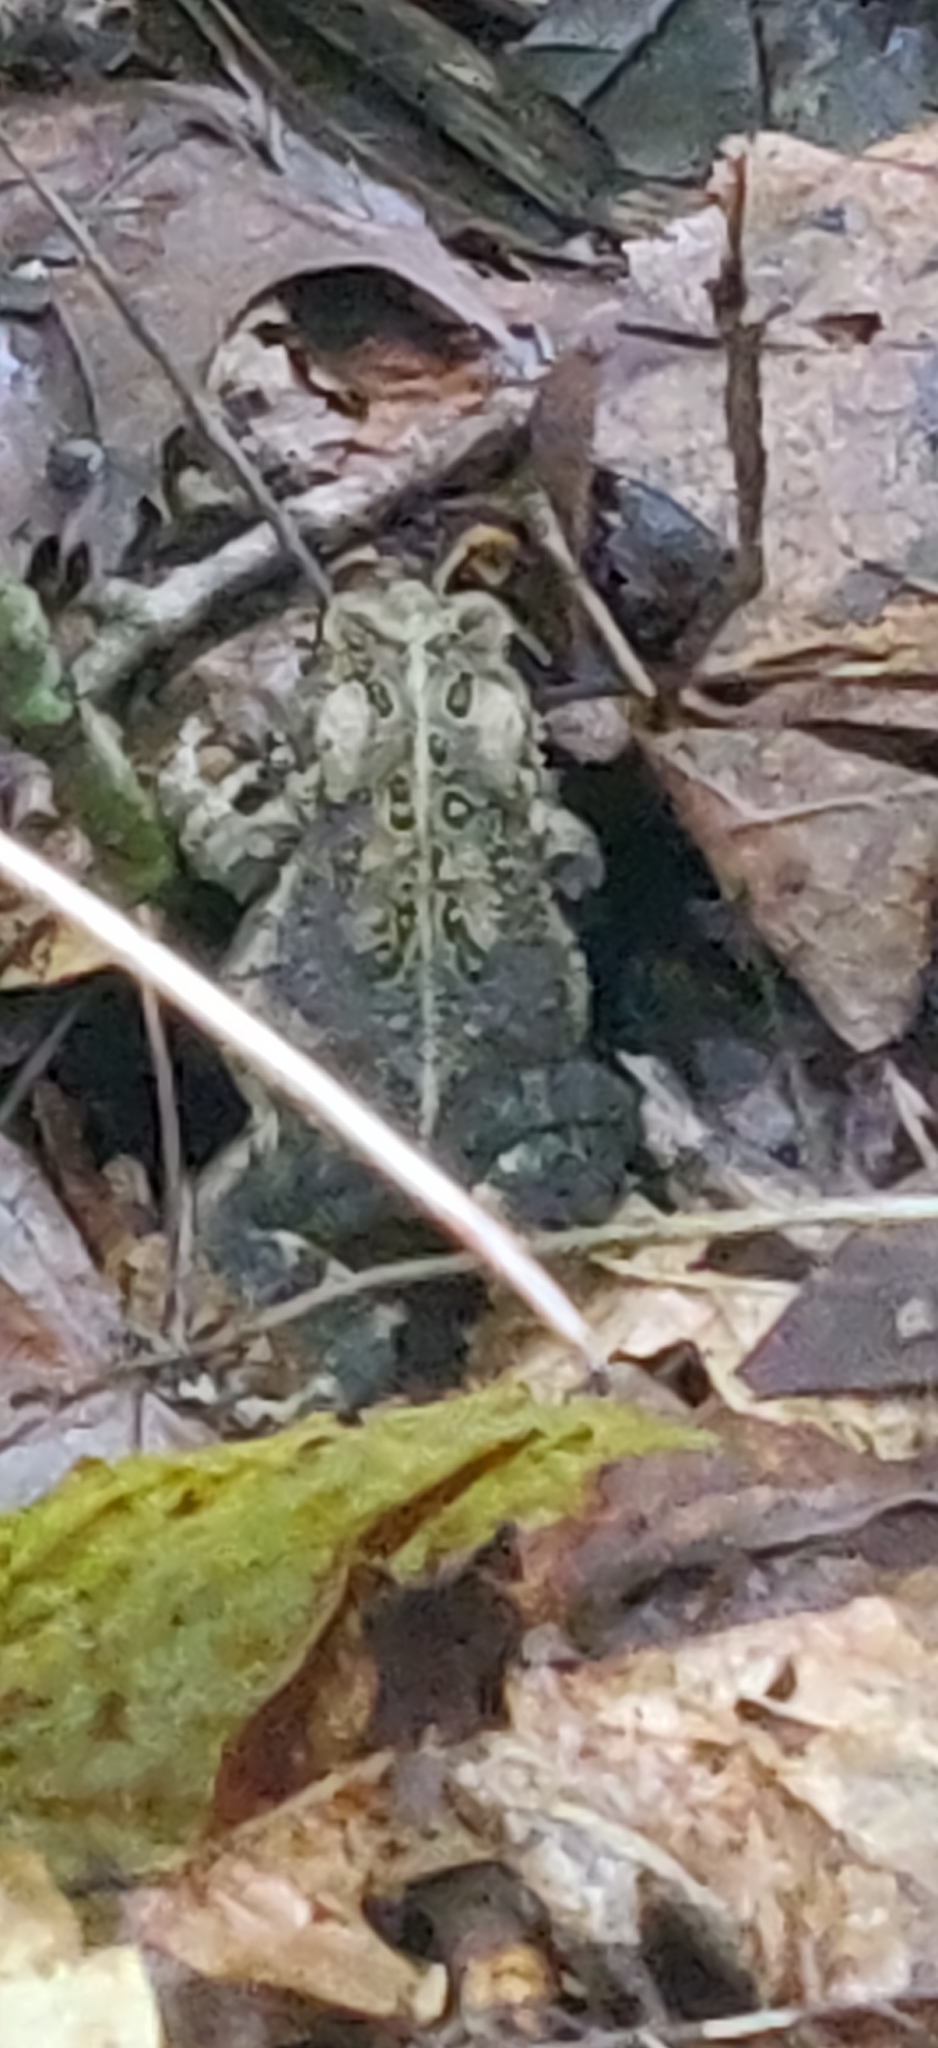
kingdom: Animalia
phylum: Chordata
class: Amphibia
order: Anura
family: Bufonidae
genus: Anaxyrus
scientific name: Anaxyrus americanus
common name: American toad
